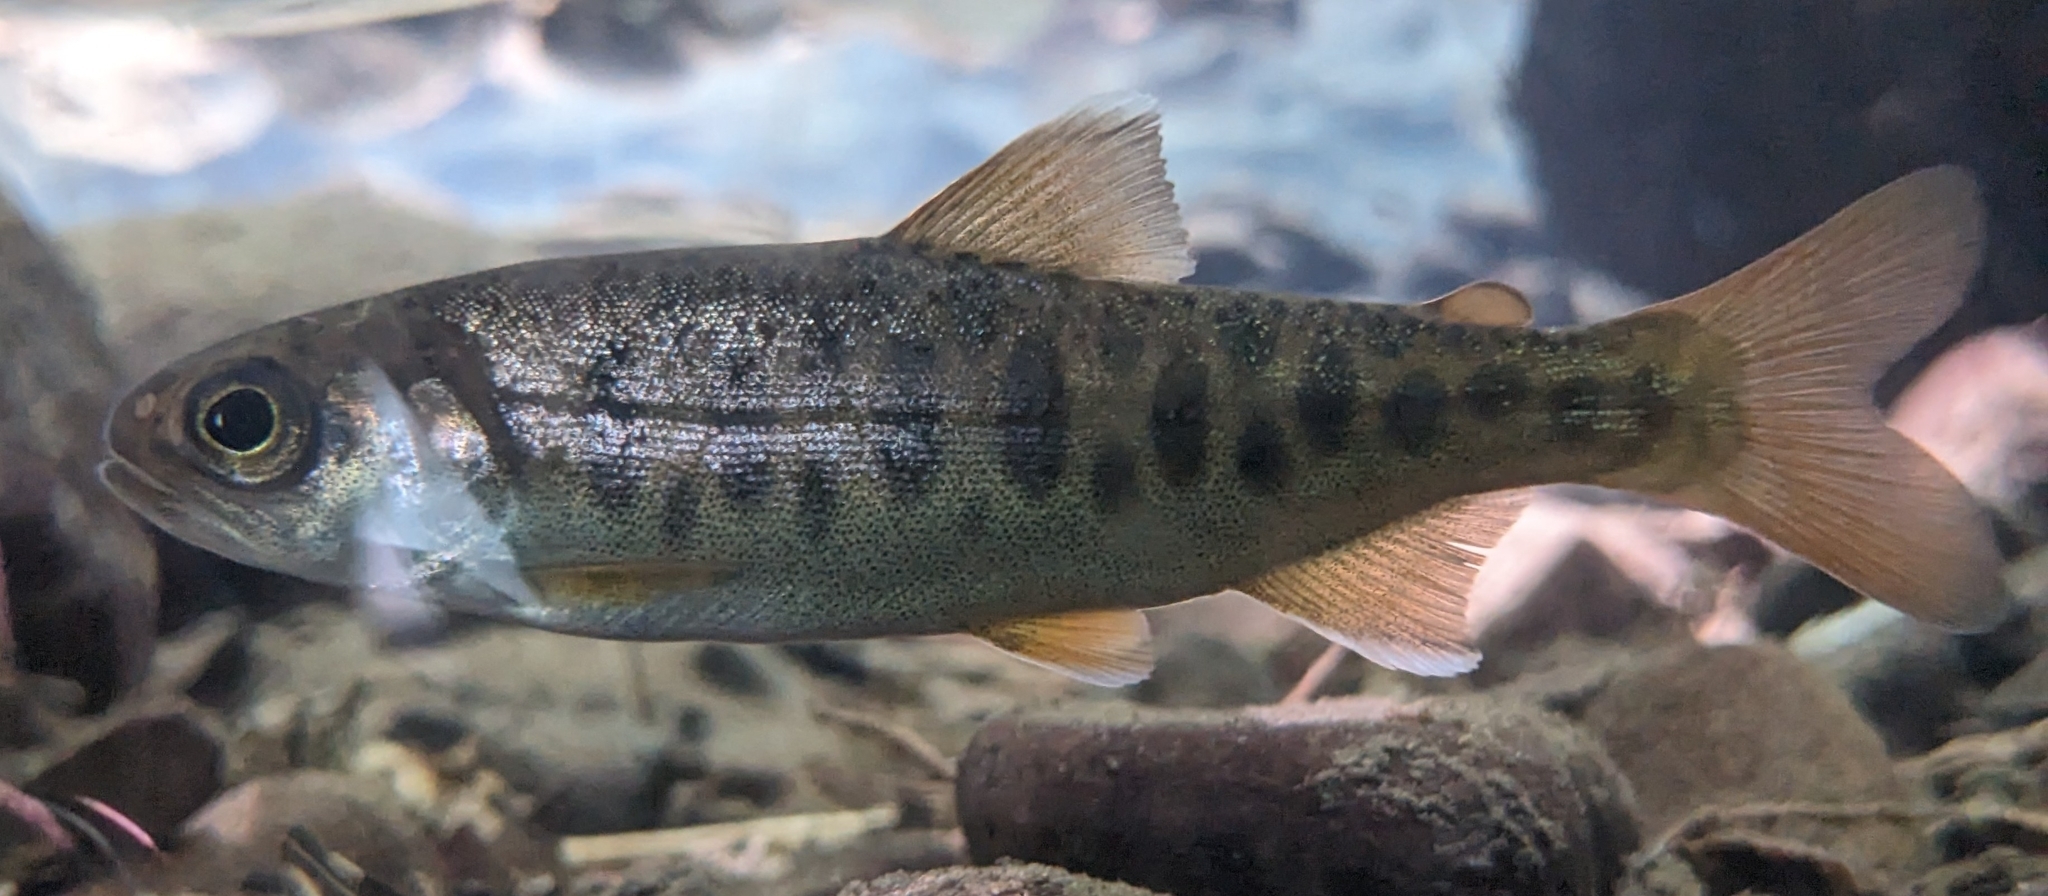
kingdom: Animalia
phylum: Chordata
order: Salmoniformes
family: Salmonidae
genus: Oncorhynchus
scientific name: Oncorhynchus kisutch
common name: Coho salmon
